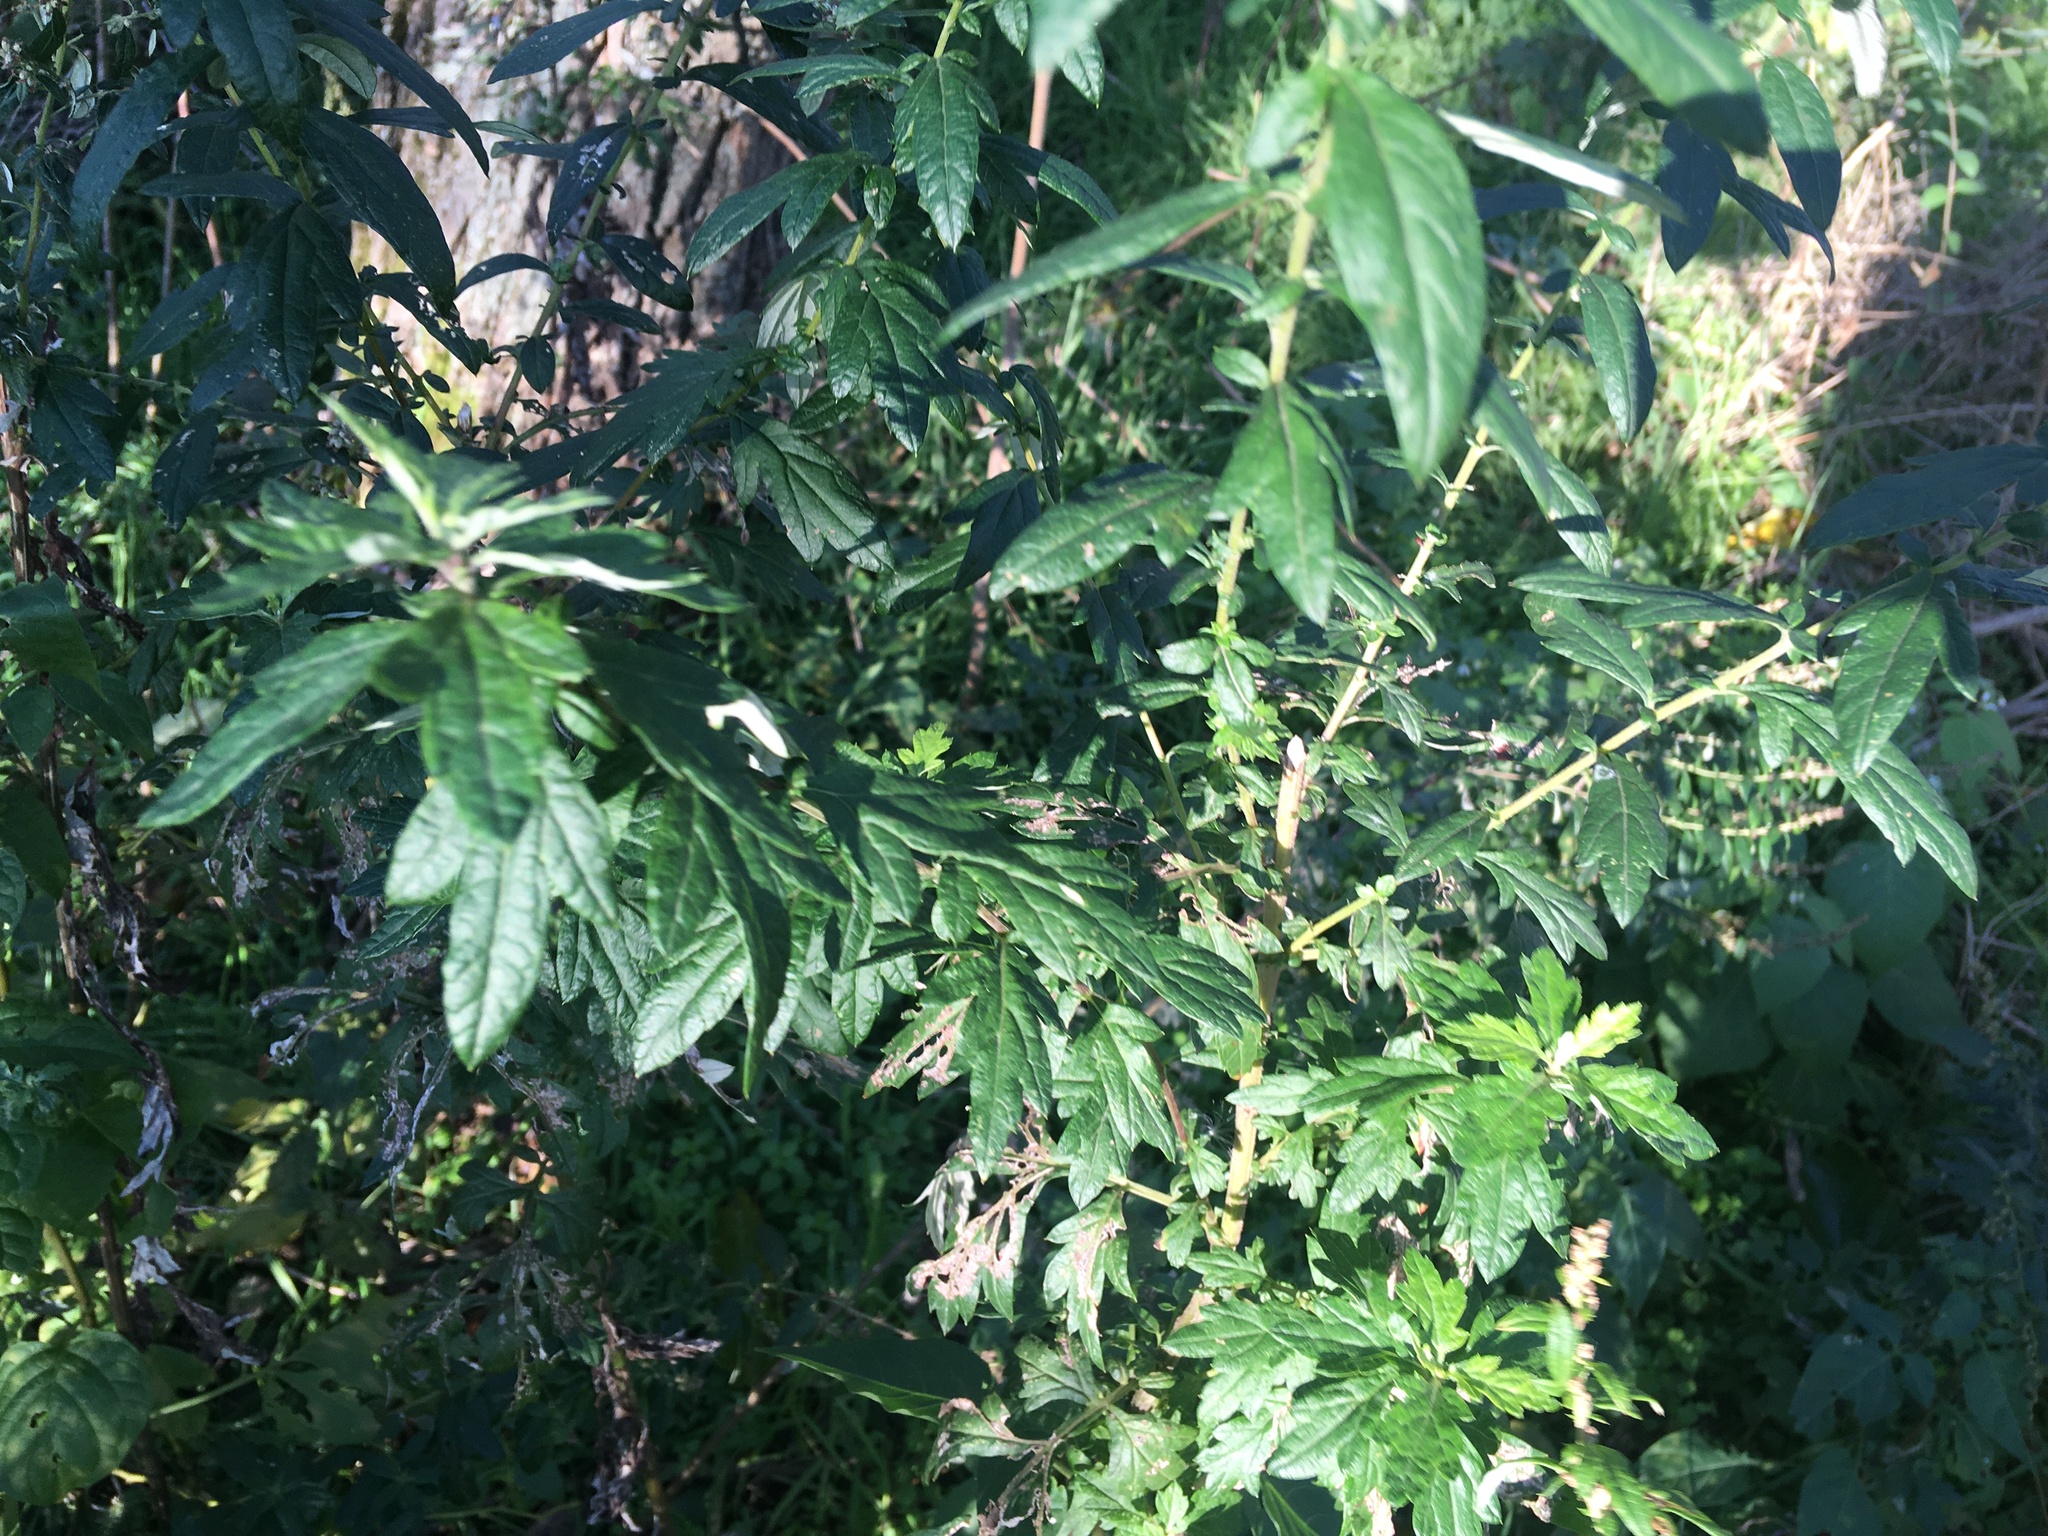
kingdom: Plantae
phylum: Tracheophyta
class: Magnoliopsida
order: Asterales
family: Asteraceae
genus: Artemisia
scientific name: Artemisia vulgaris
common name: Mugwort
